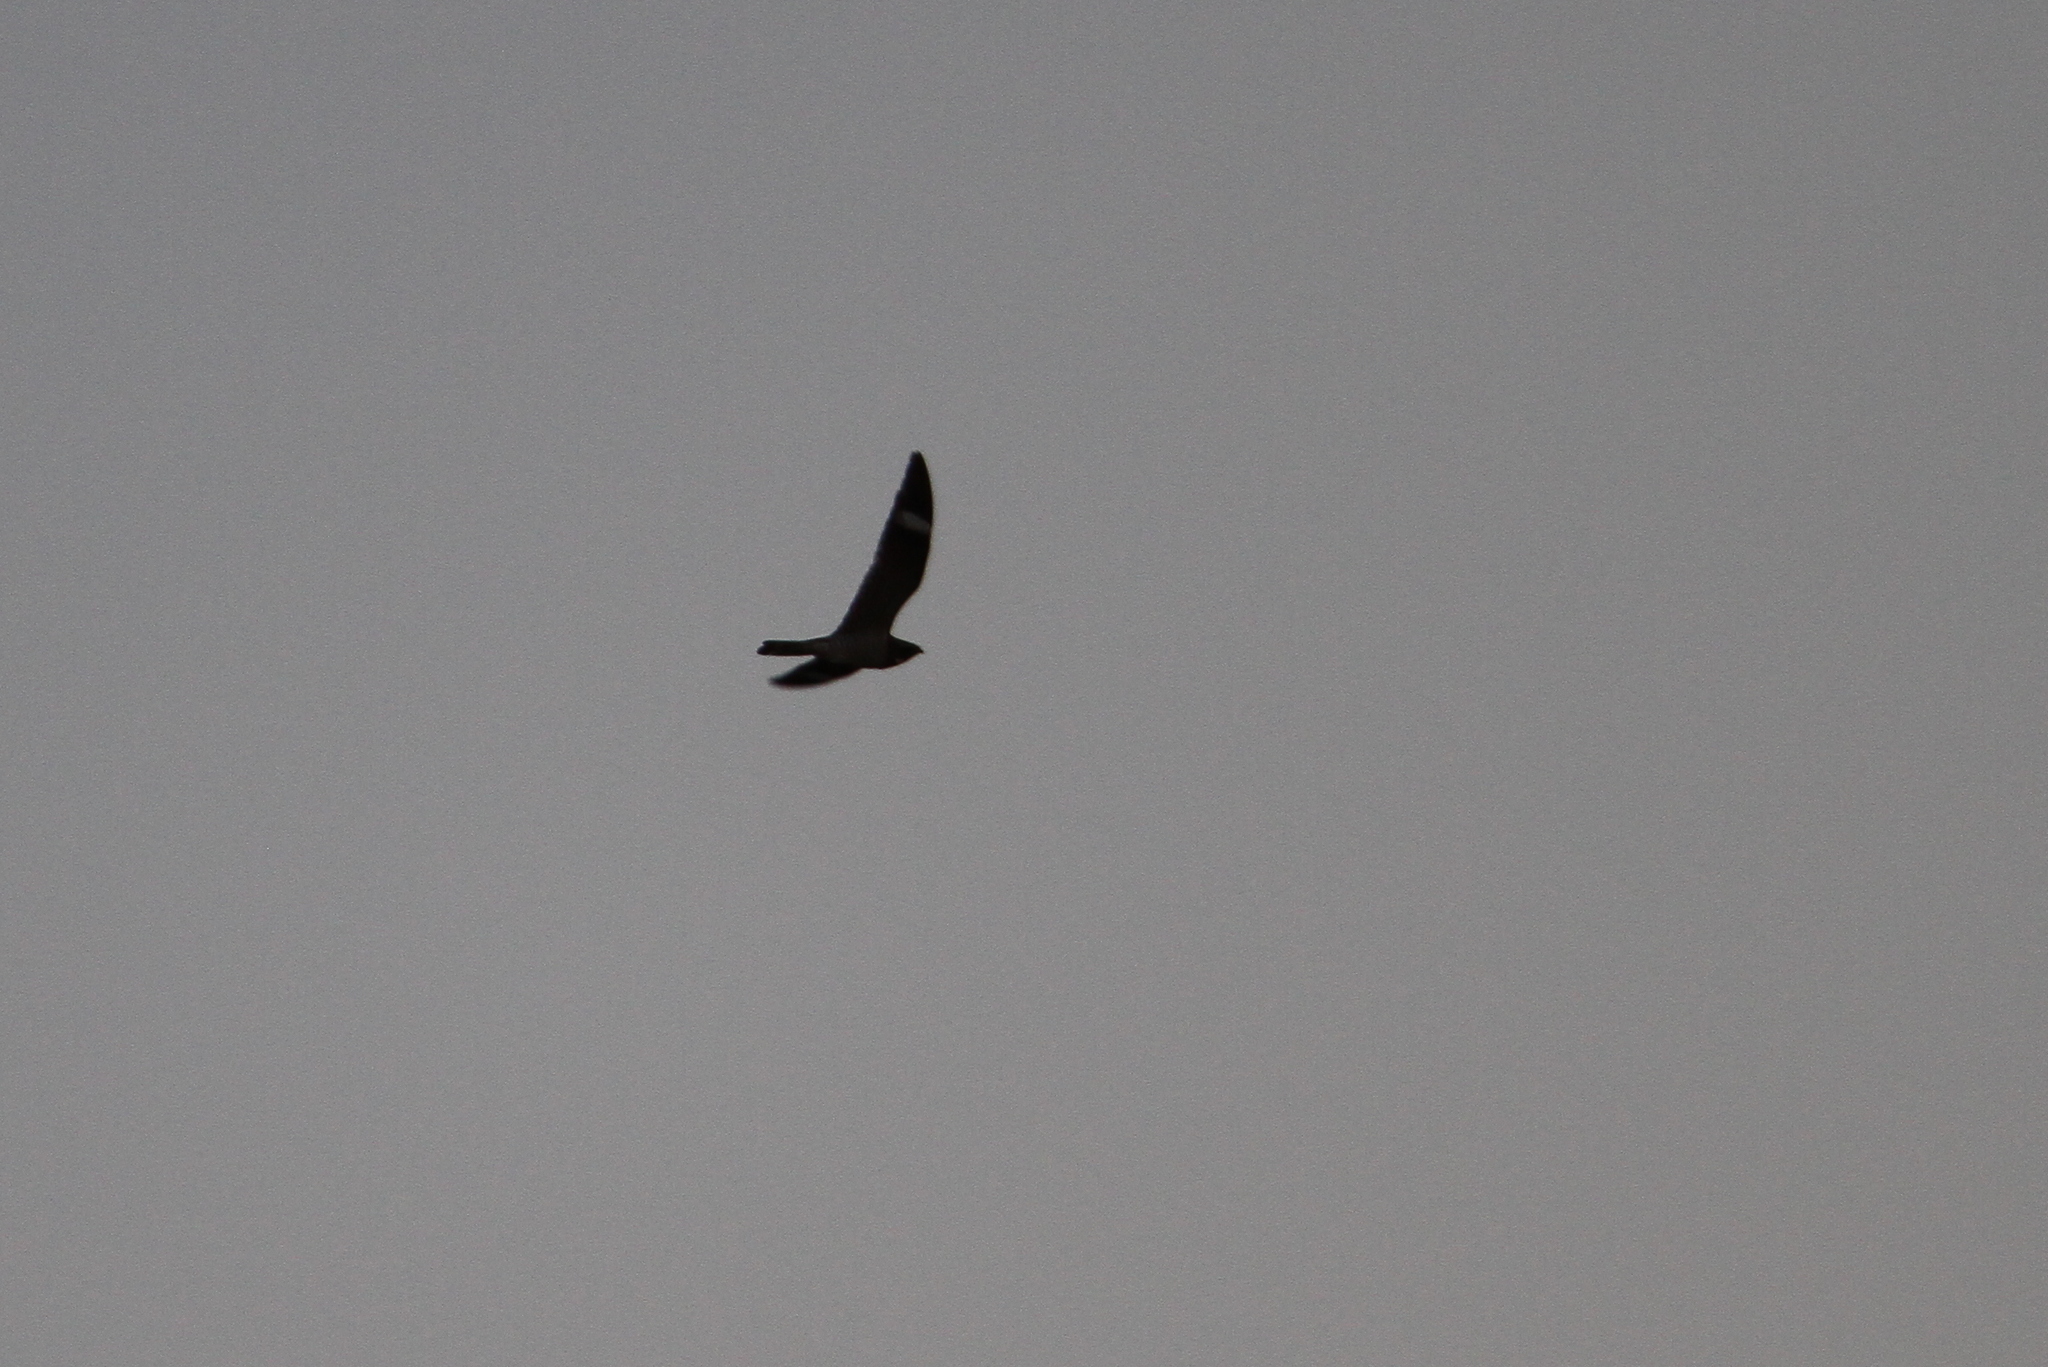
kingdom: Animalia
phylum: Chordata
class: Aves
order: Caprimulgiformes
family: Caprimulgidae
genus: Chordeiles
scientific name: Chordeiles minor
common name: Common nighthawk
